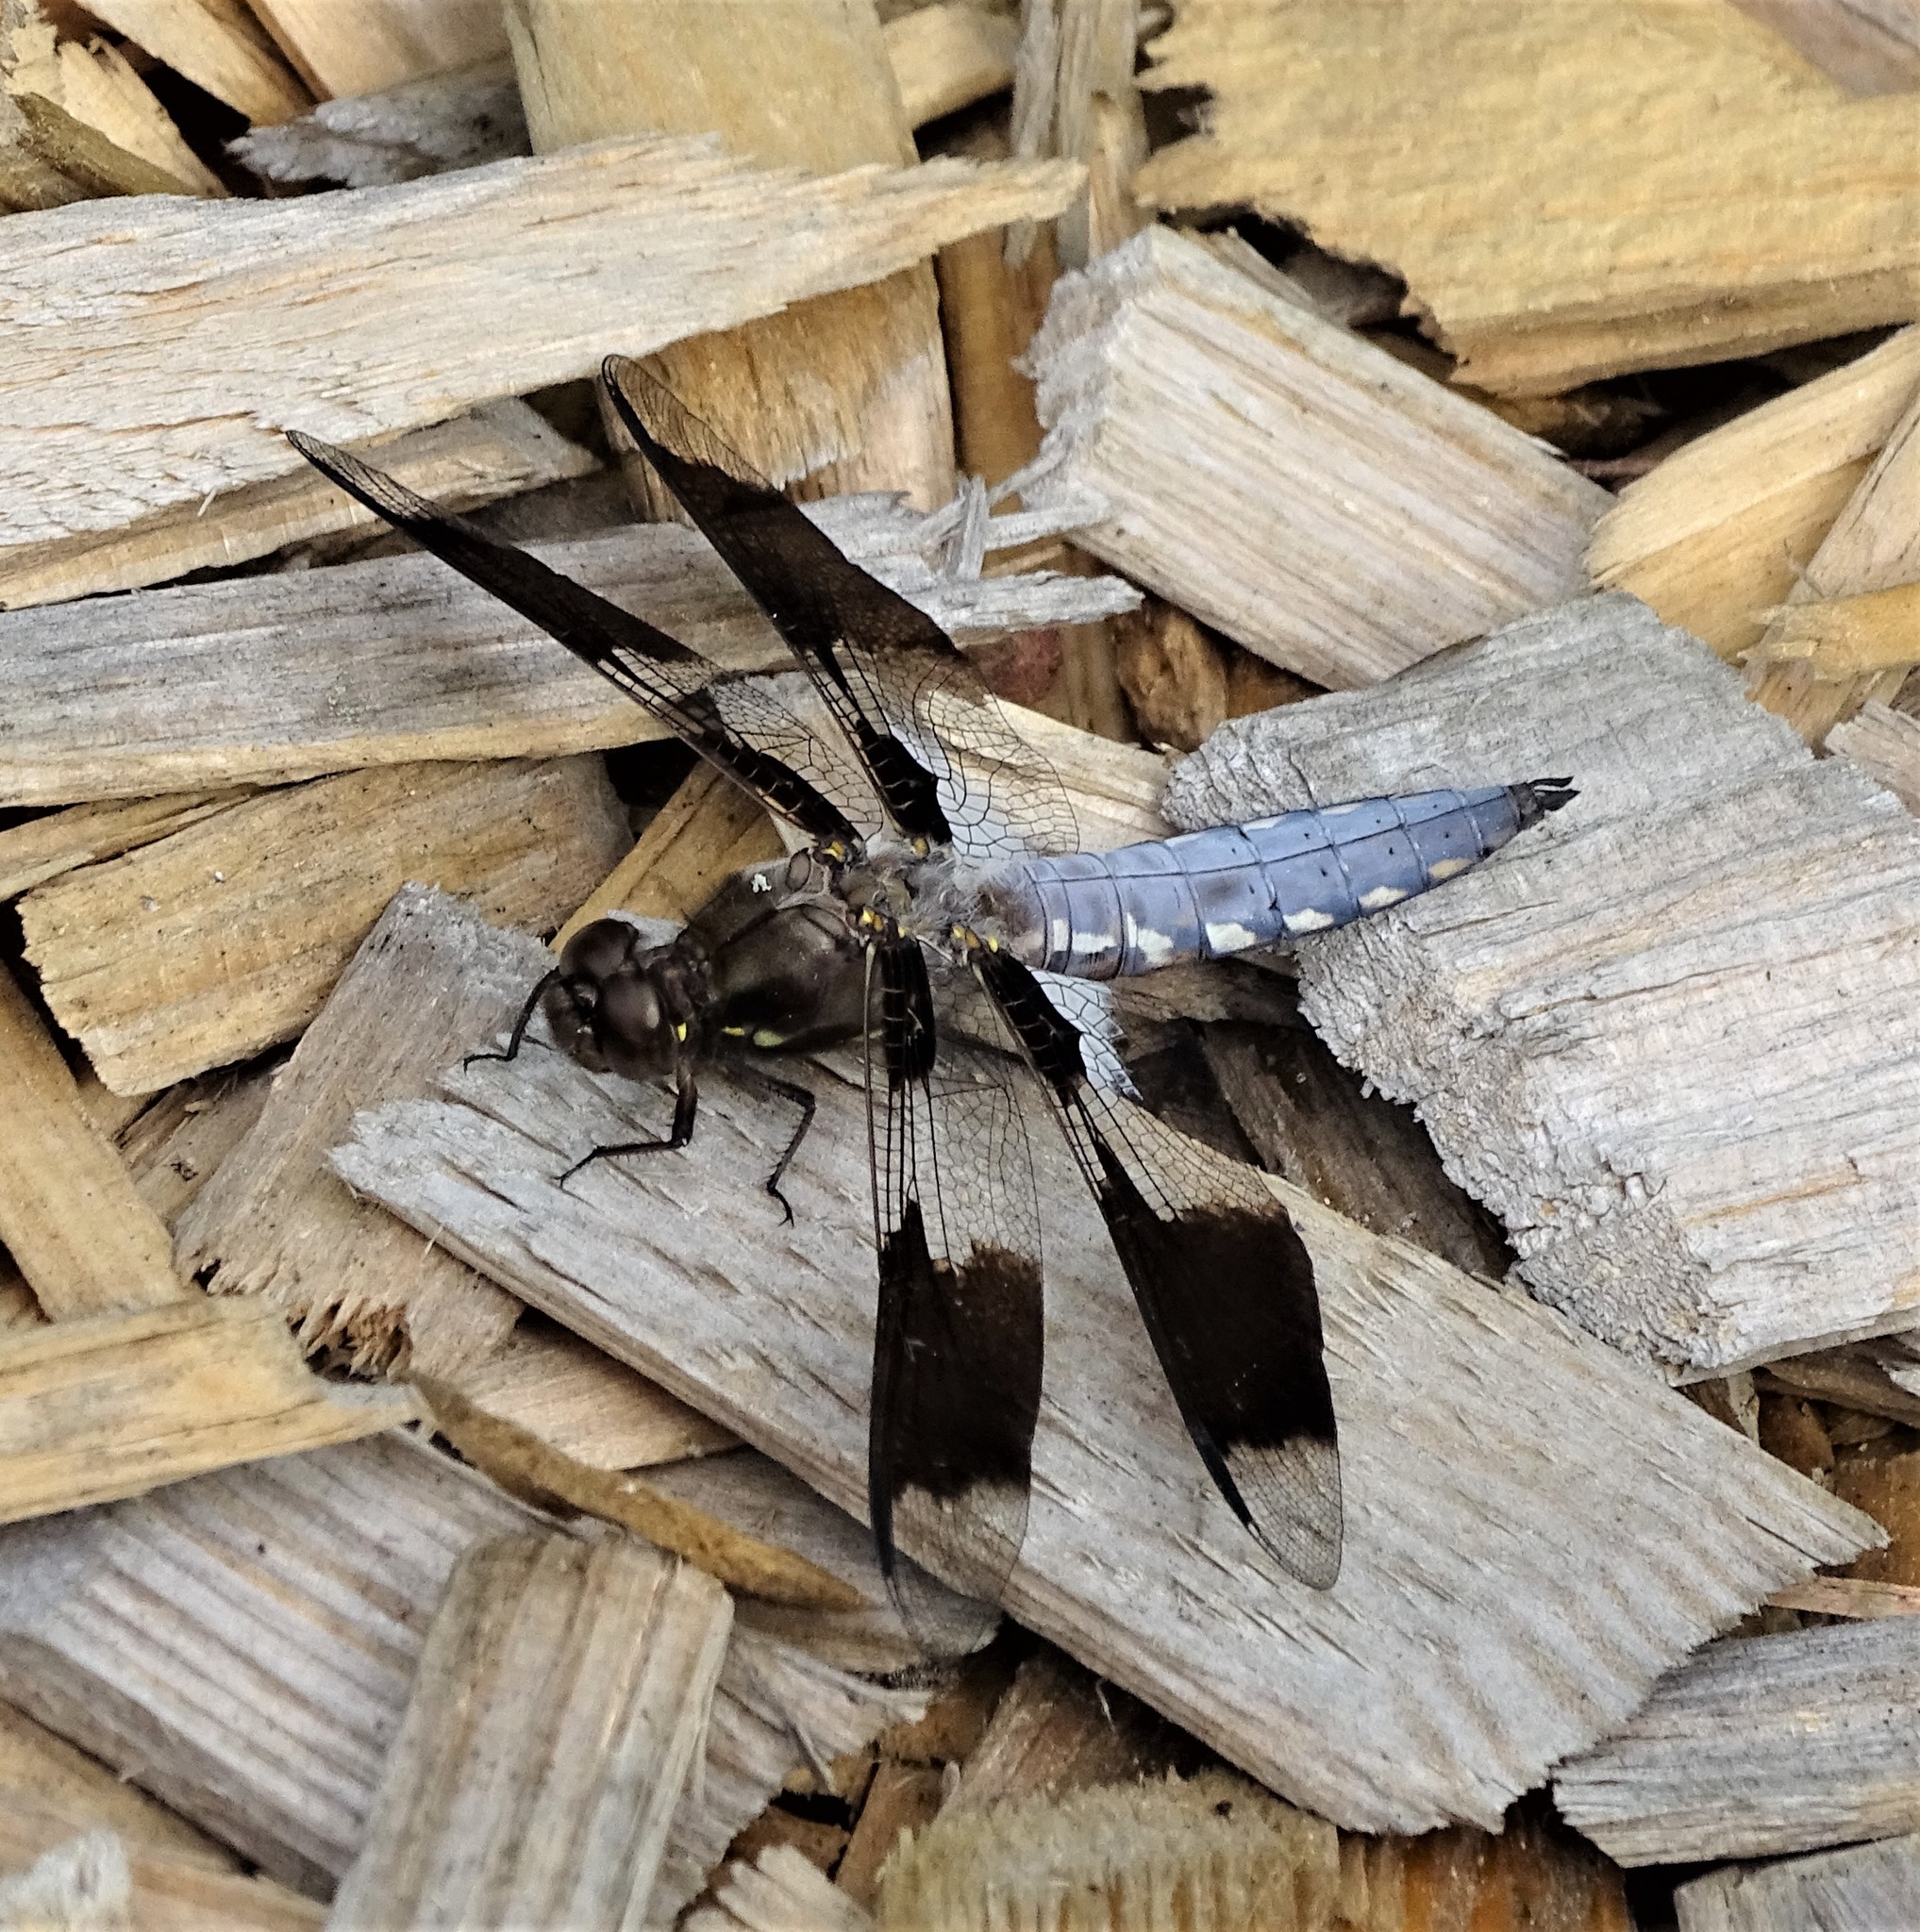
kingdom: Animalia
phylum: Arthropoda
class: Insecta
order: Odonata
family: Libellulidae
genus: Plathemis
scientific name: Plathemis lydia
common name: Common whitetail
